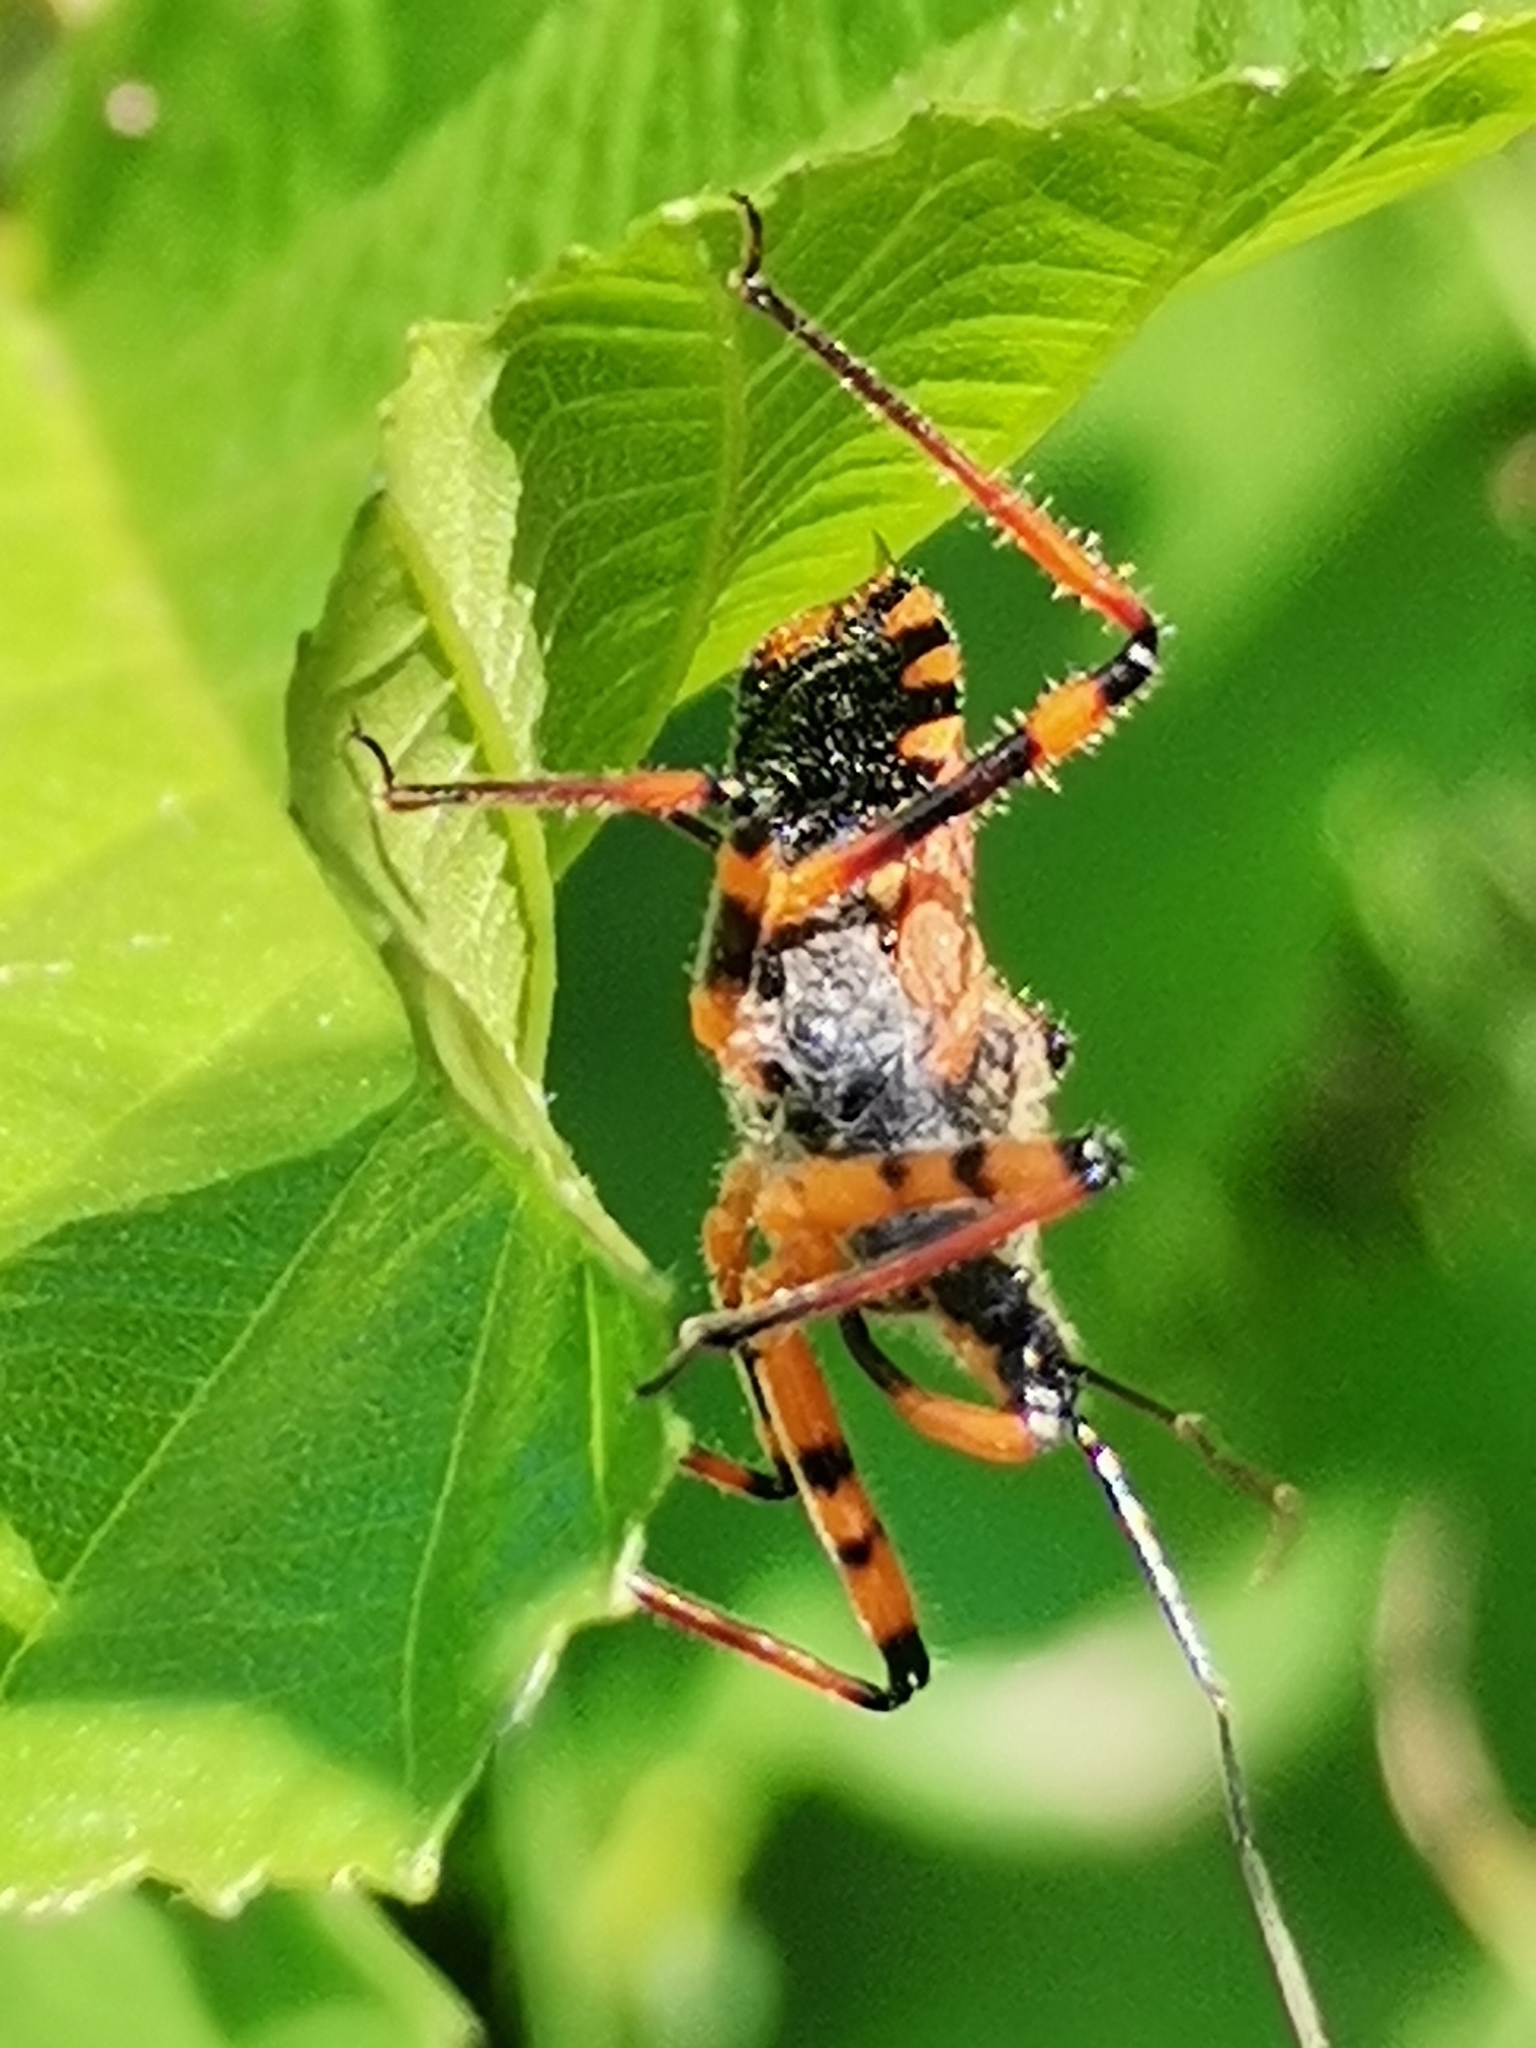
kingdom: Animalia
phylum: Arthropoda
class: Insecta
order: Hemiptera
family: Reduviidae
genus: Rhynocoris
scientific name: Rhynocoris iracundus
